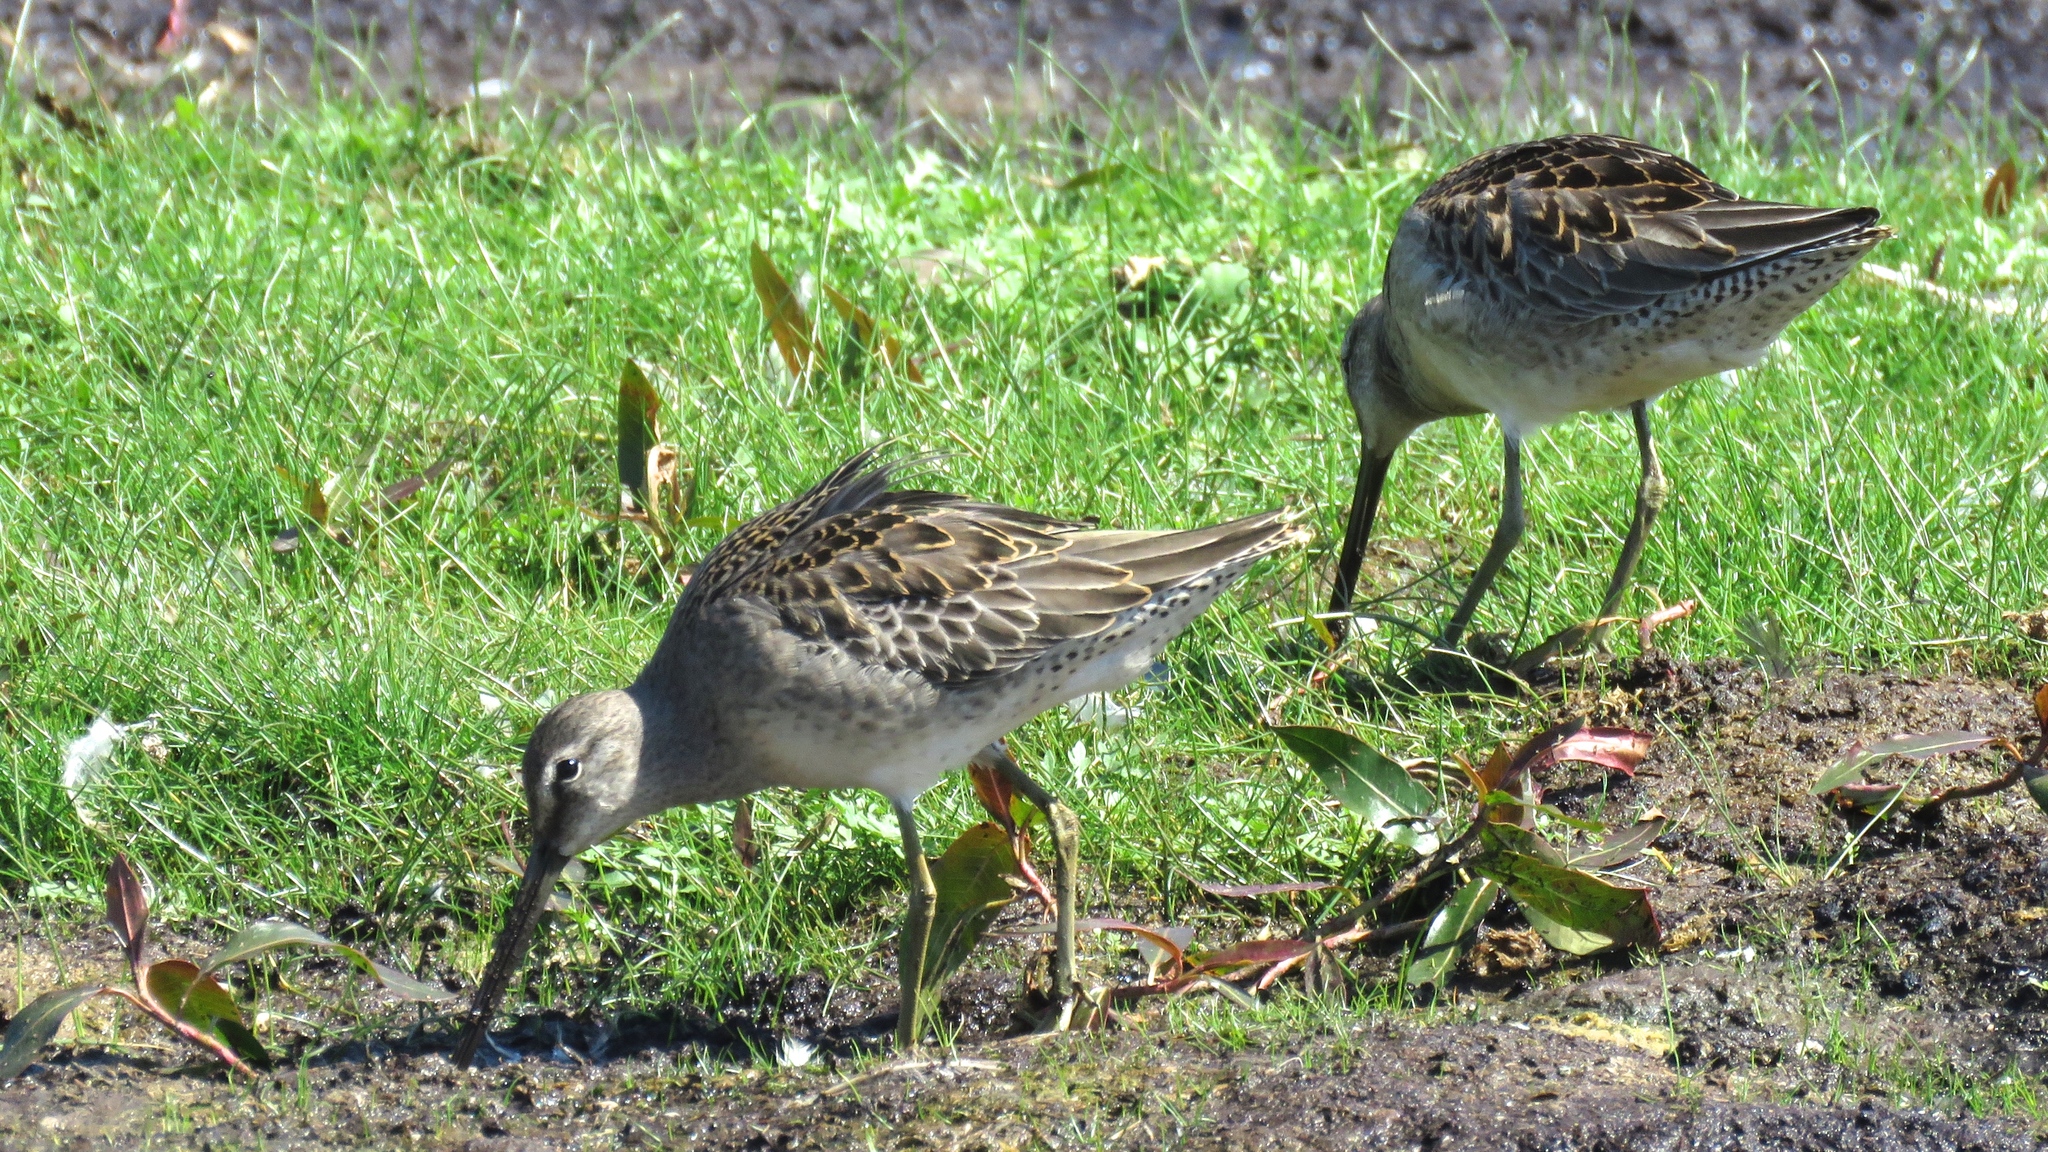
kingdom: Animalia
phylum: Chordata
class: Aves
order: Charadriiformes
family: Scolopacidae
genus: Limnodromus
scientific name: Limnodromus scolopaceus
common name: Long-billed dowitcher
